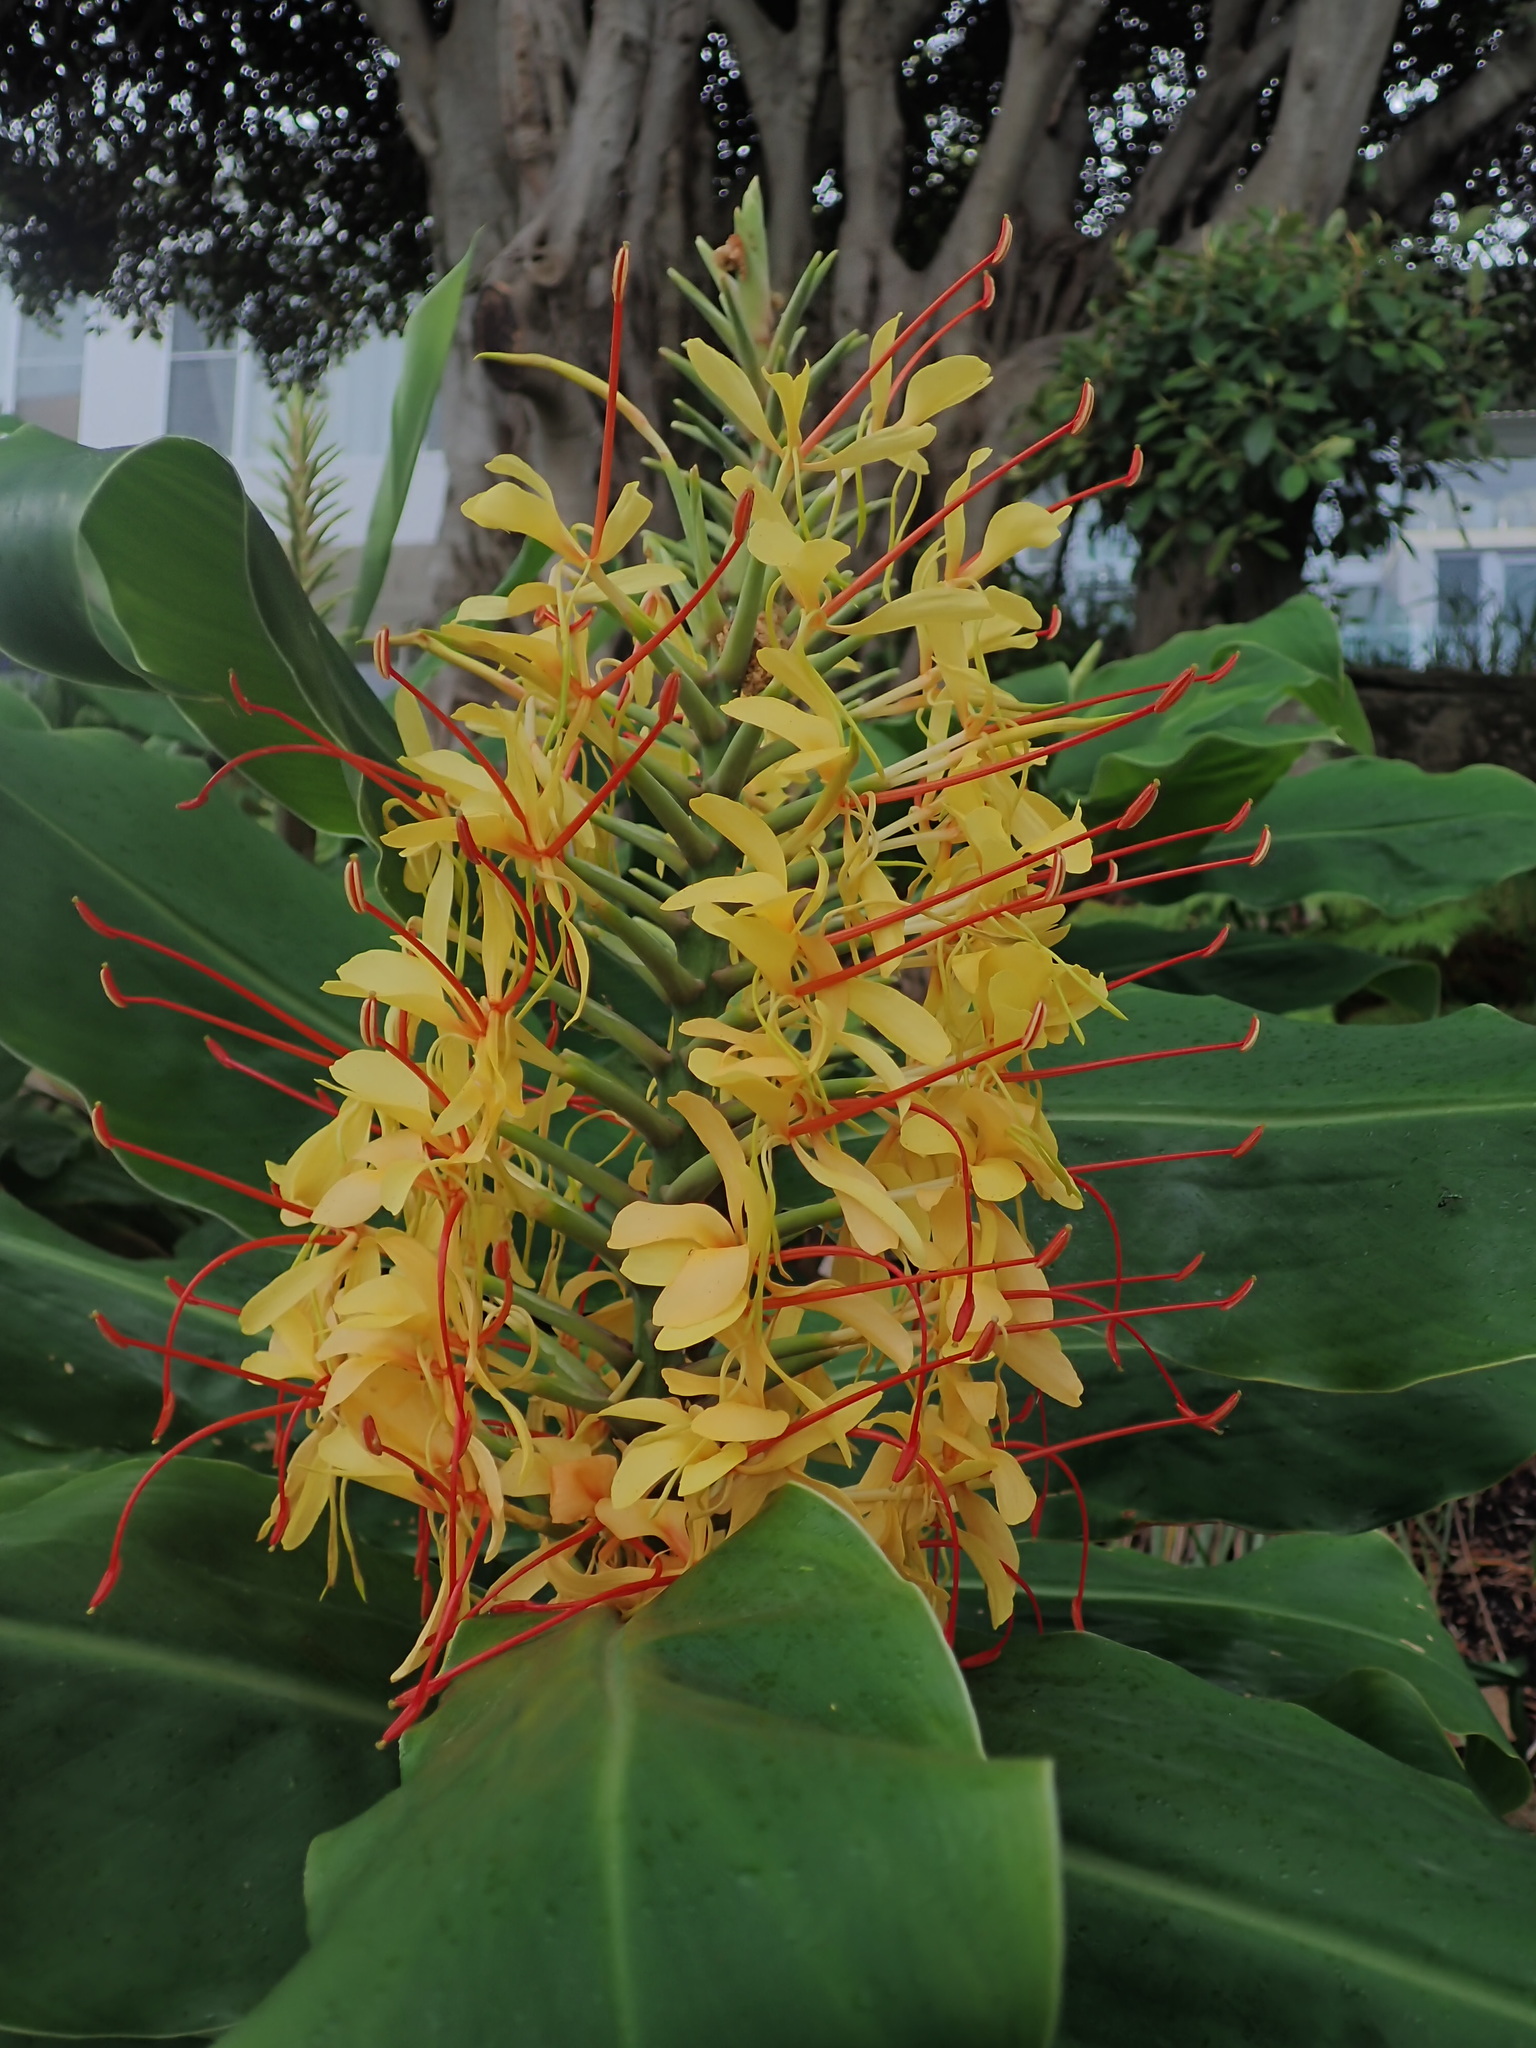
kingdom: Plantae
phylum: Tracheophyta
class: Liliopsida
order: Zingiberales
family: Zingiberaceae
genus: Hedychium
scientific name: Hedychium gardnerianum
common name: Himalayan ginger
